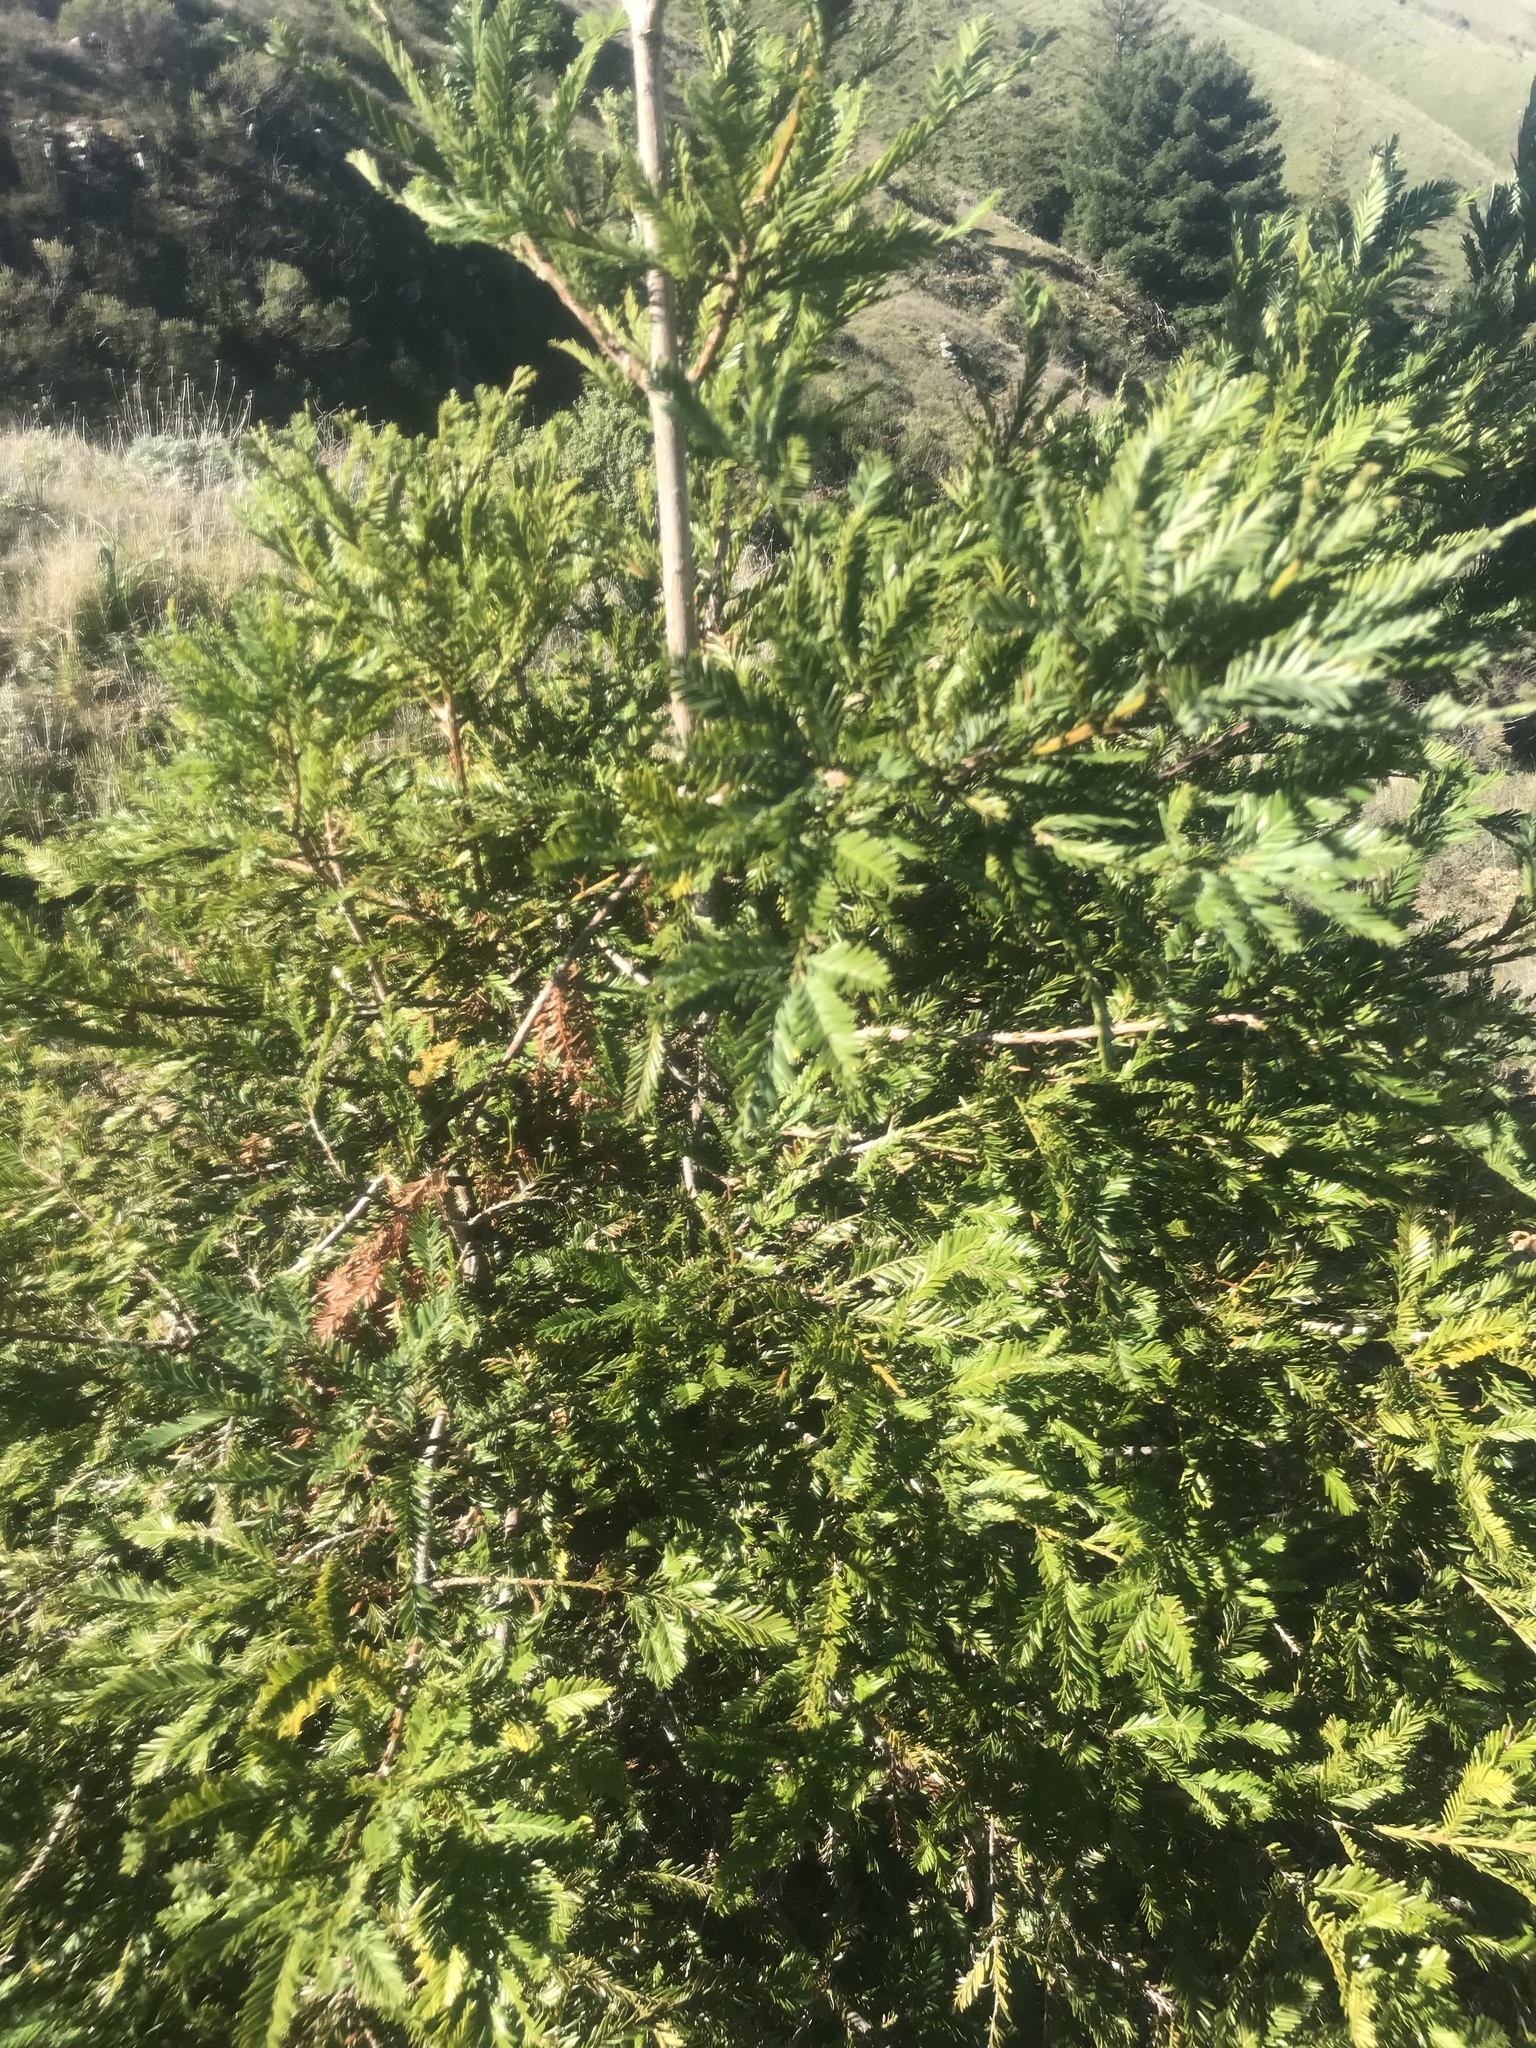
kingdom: Plantae
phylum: Tracheophyta
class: Pinopsida
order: Pinales
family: Cupressaceae
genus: Sequoia
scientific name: Sequoia sempervirens
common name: Coast redwood
